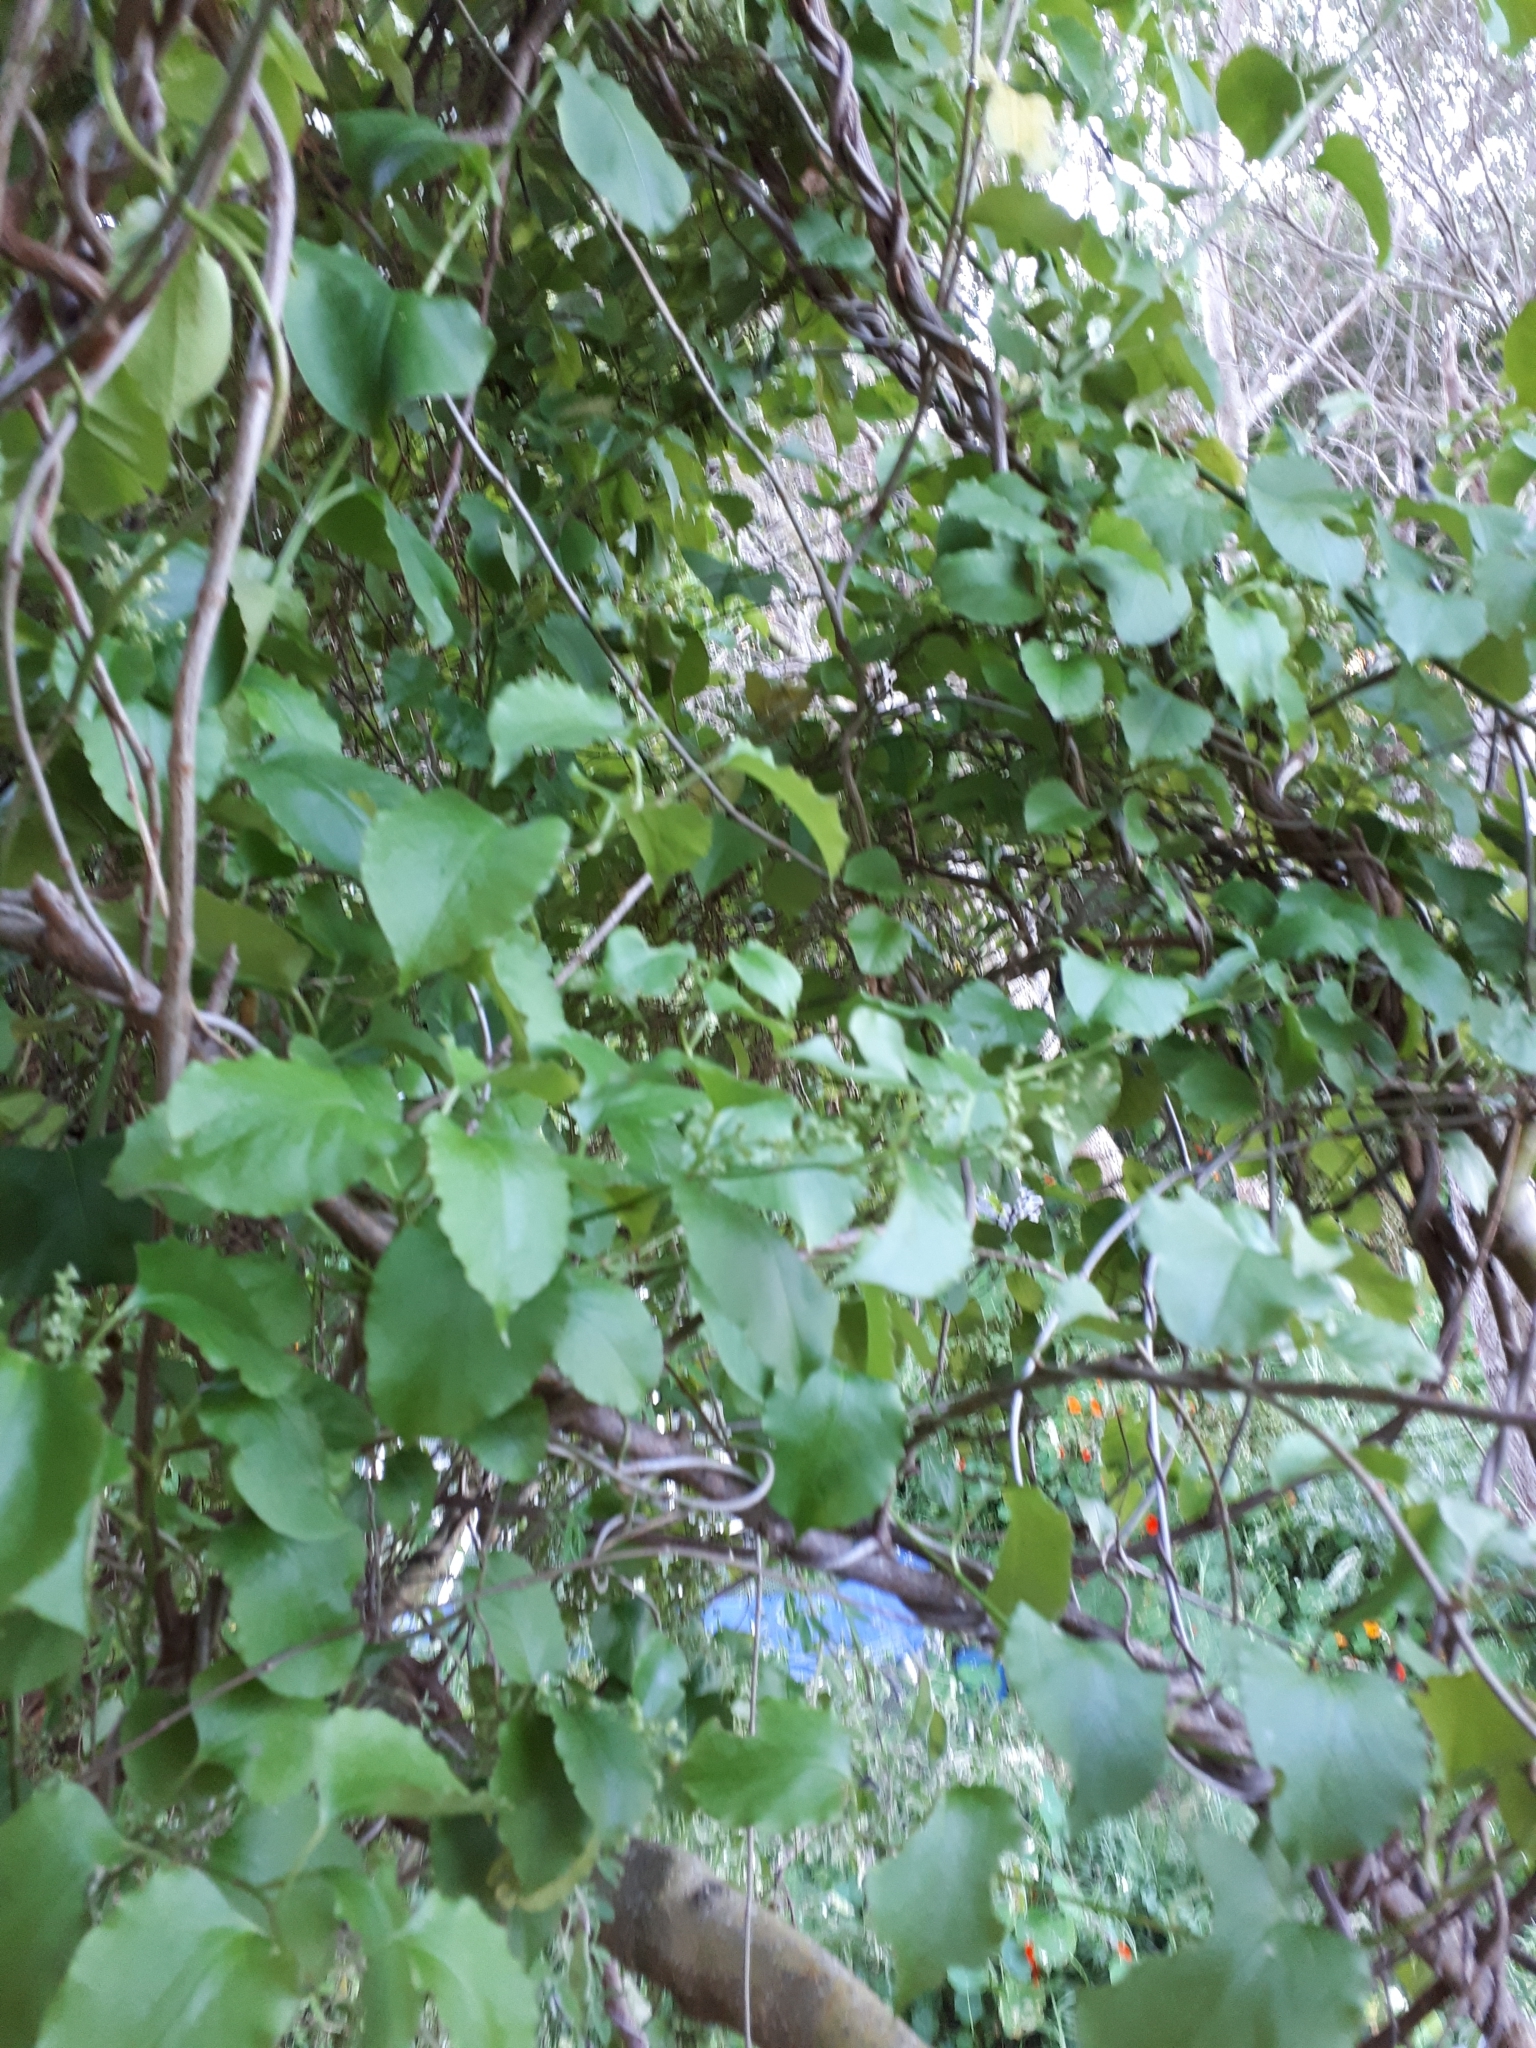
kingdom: Plantae
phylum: Tracheophyta
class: Magnoliopsida
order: Caryophyllales
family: Polygonaceae
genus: Muehlenbeckia
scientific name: Muehlenbeckia australis
